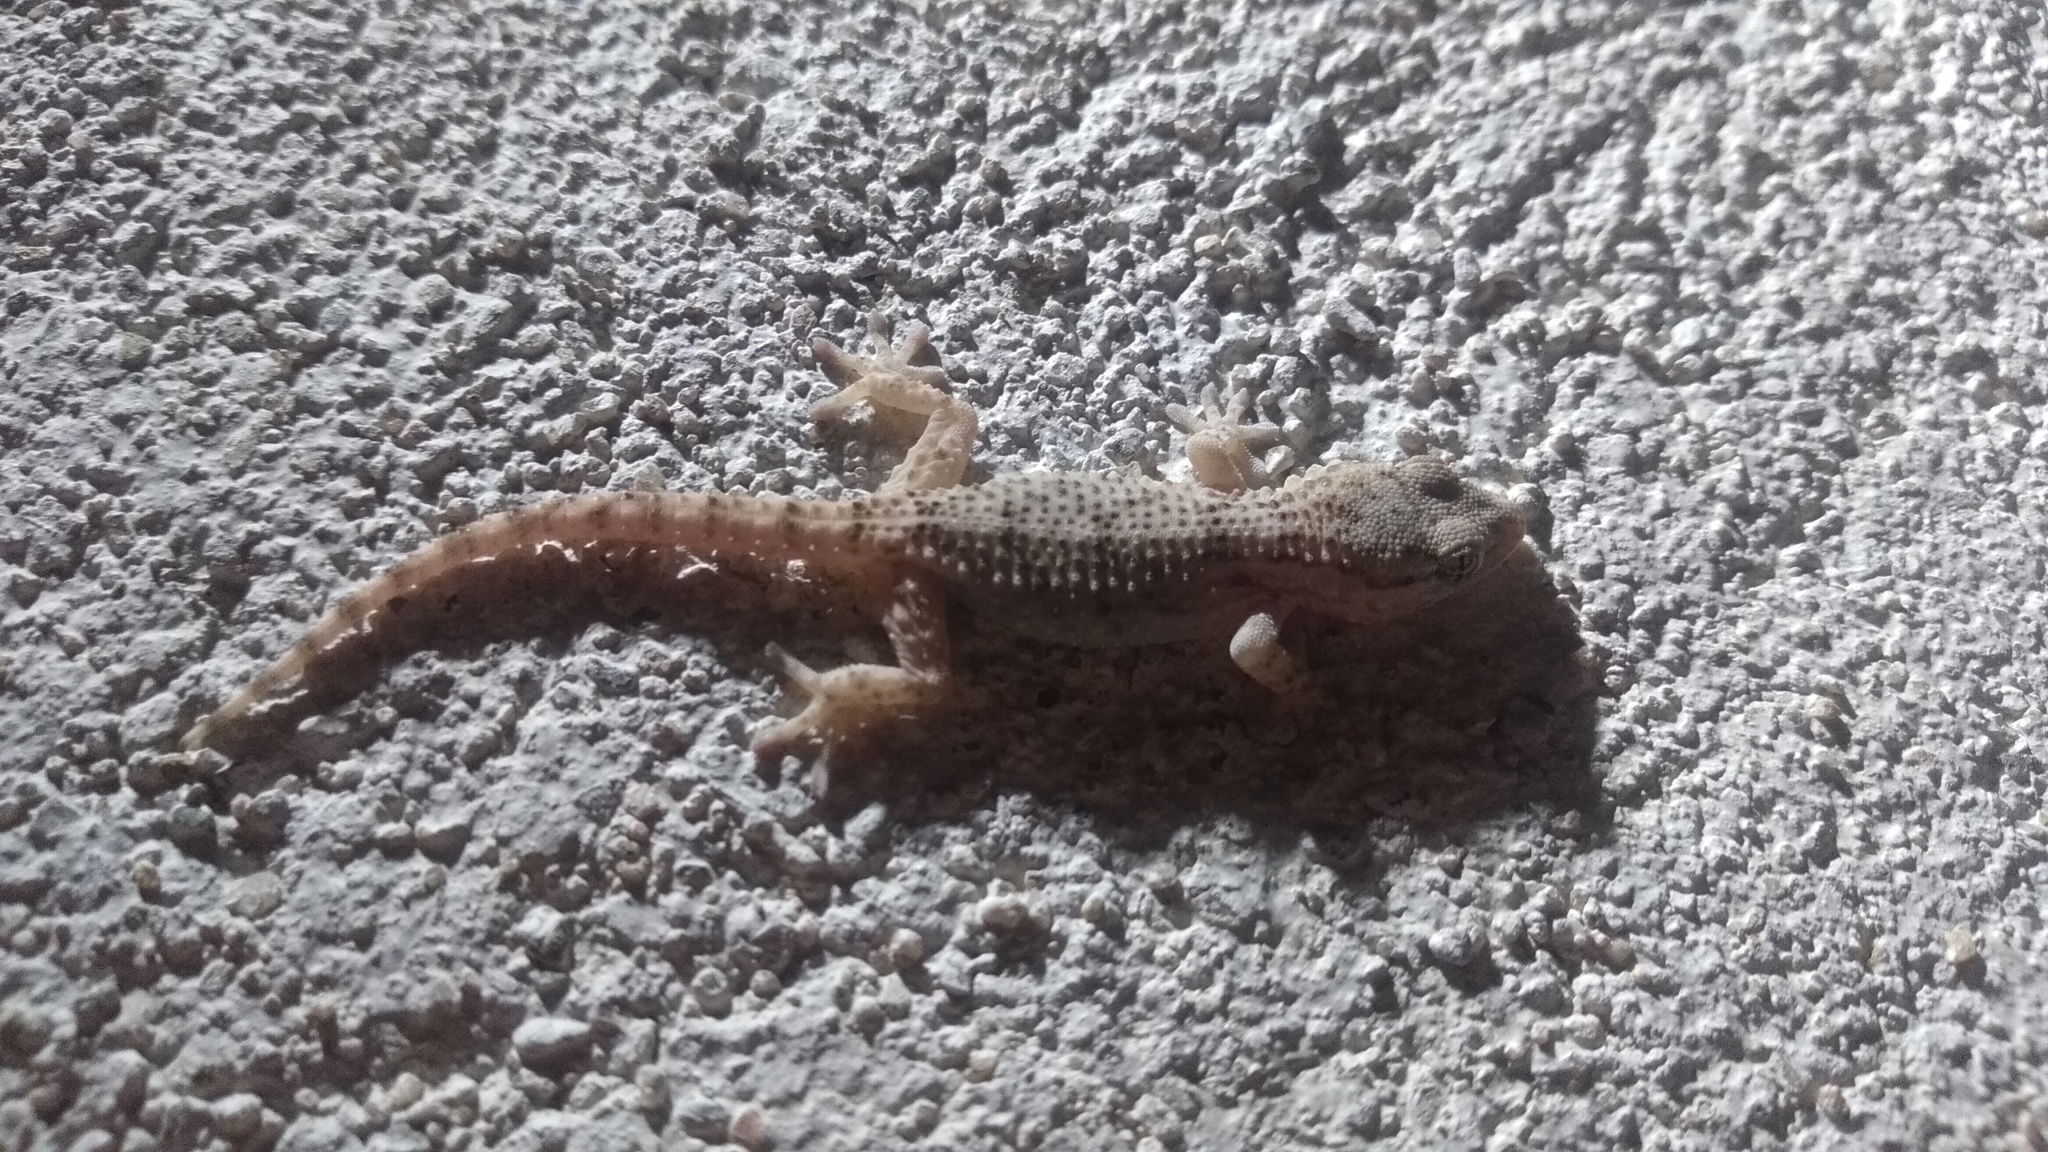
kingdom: Animalia
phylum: Chordata
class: Squamata
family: Phyllodactylidae
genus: Tarentola
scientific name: Tarentola mauritanica
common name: Moorish gecko
